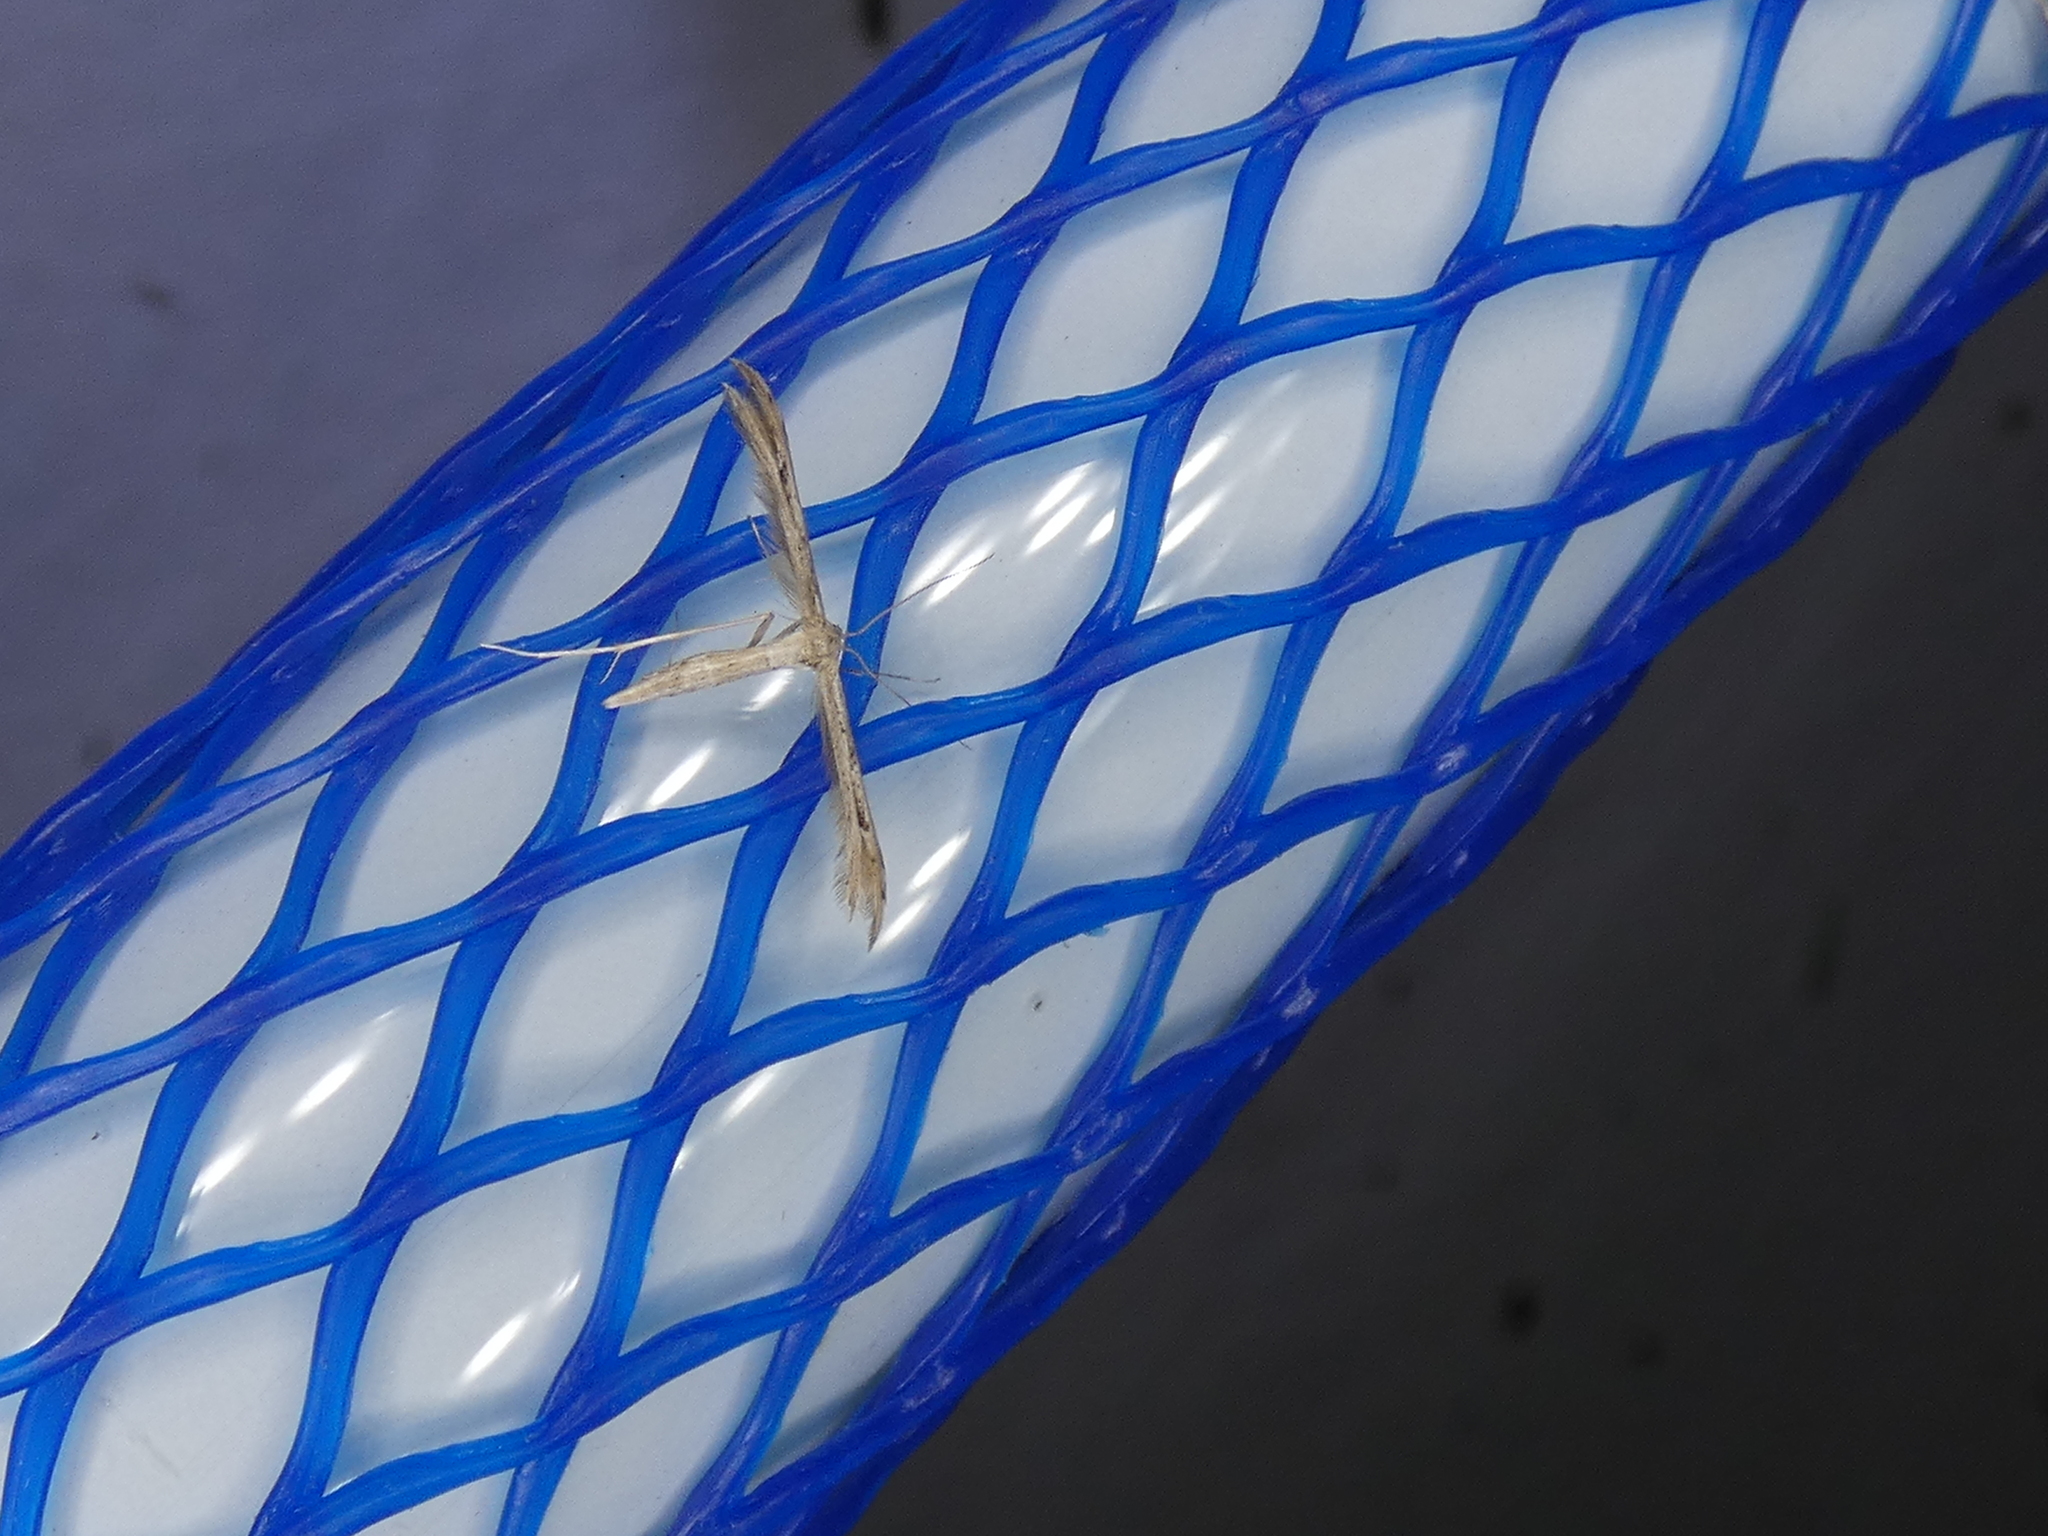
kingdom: Animalia
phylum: Arthropoda
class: Insecta
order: Lepidoptera
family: Pterophoridae
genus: Pselnophorus
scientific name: Pselnophorus belfragei
